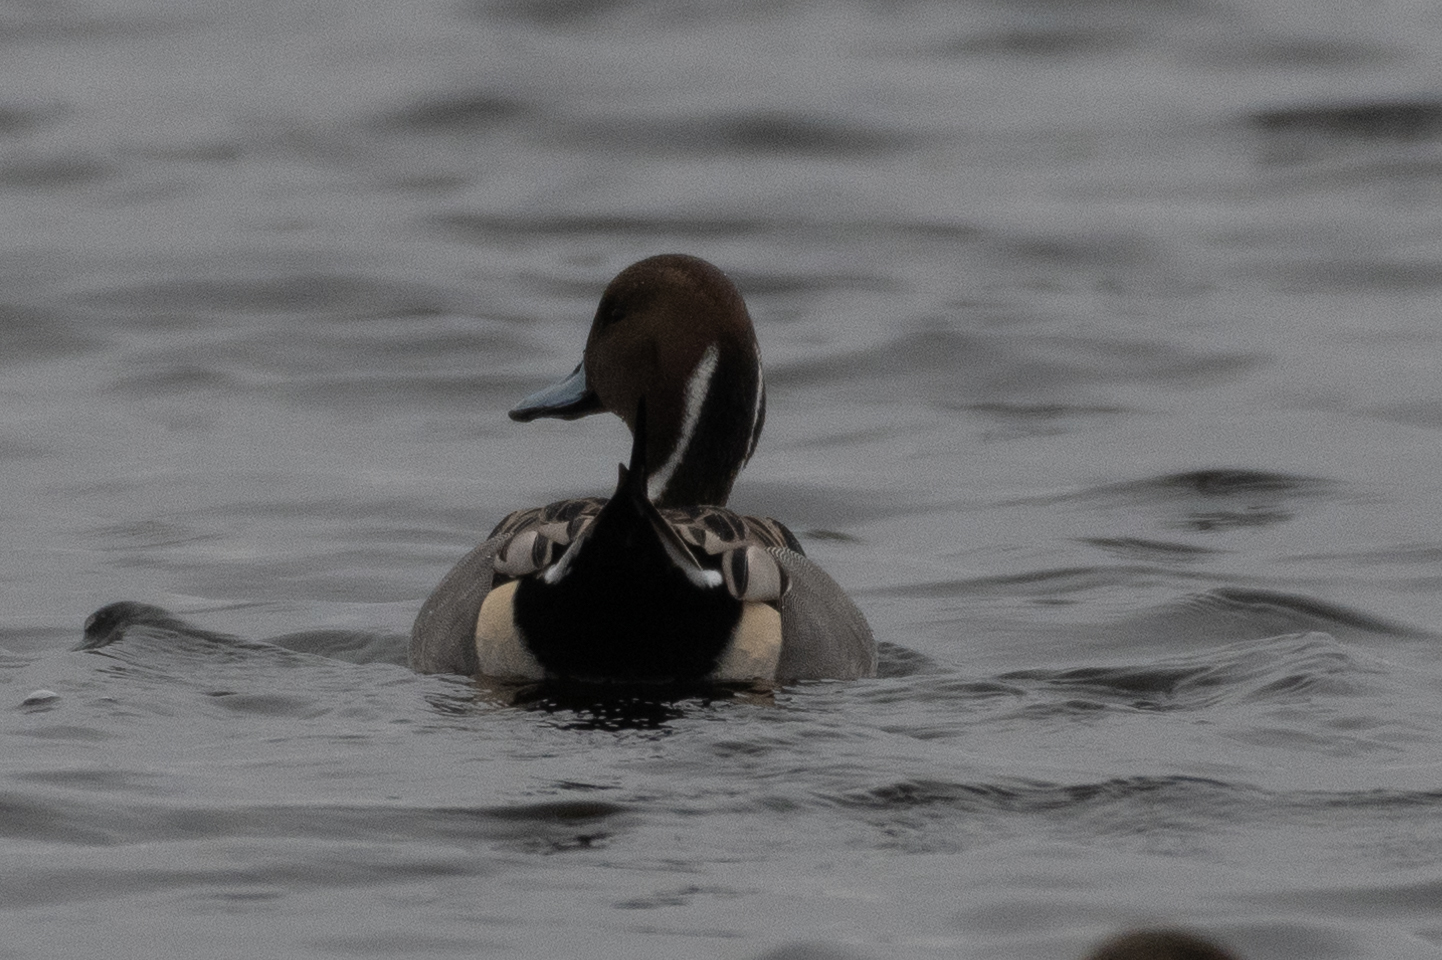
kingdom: Animalia
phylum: Chordata
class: Aves
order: Anseriformes
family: Anatidae
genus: Anas
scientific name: Anas acuta
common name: Northern pintail
